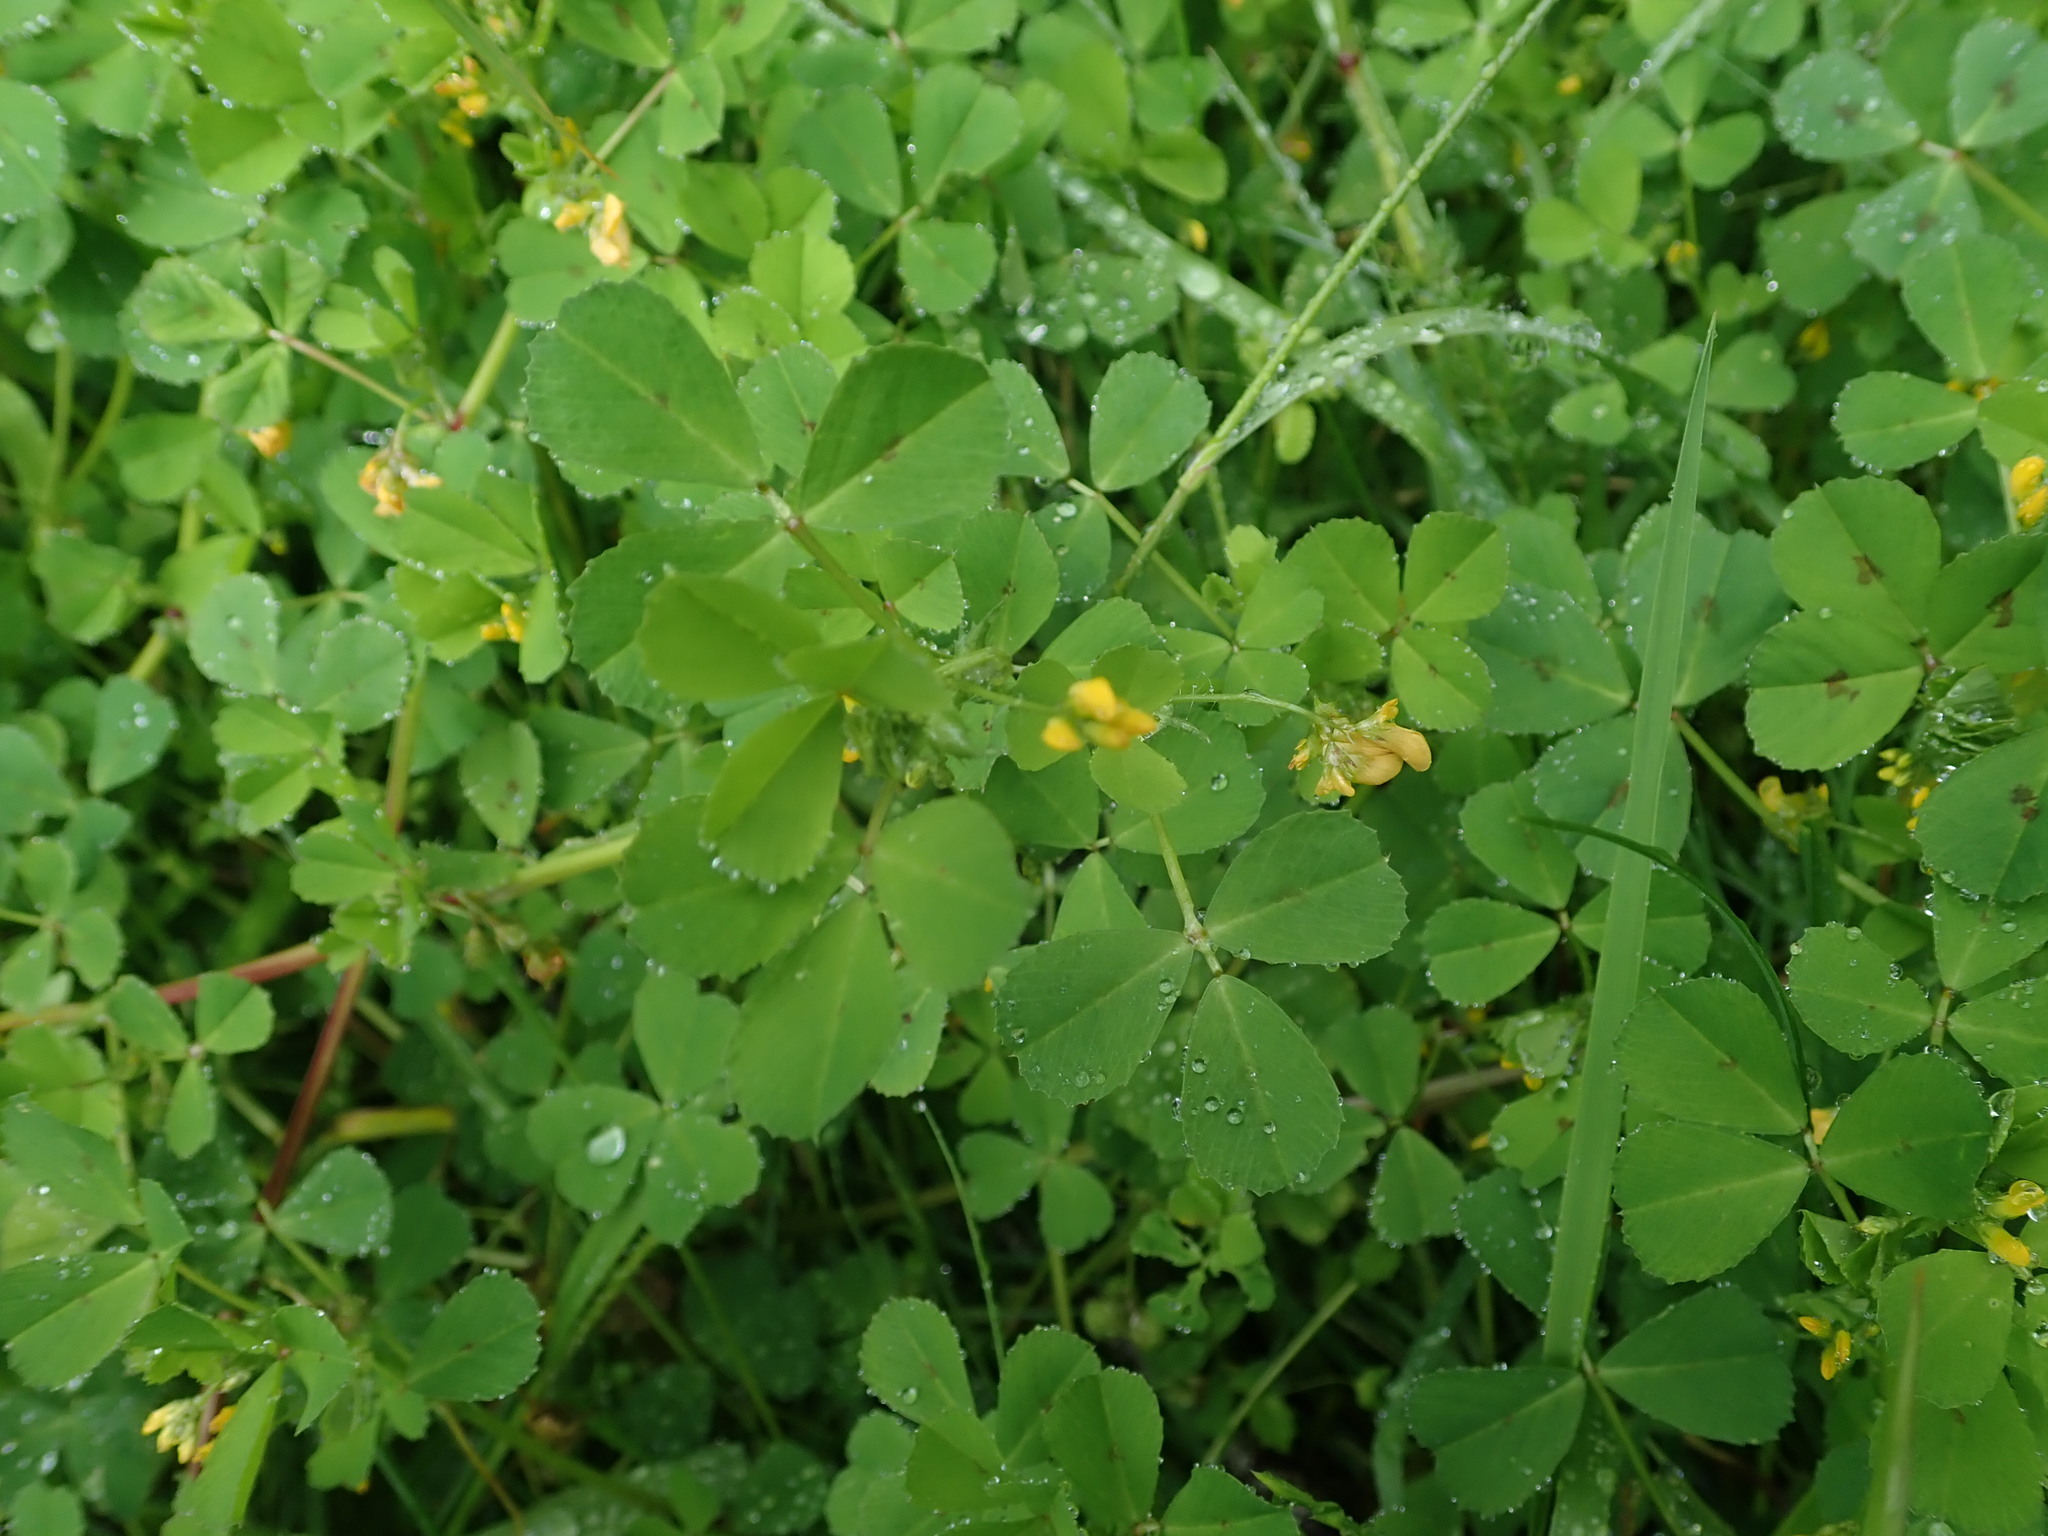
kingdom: Plantae
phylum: Tracheophyta
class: Magnoliopsida
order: Fabales
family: Fabaceae
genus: Medicago
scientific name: Medicago arabica
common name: Spotted medick
